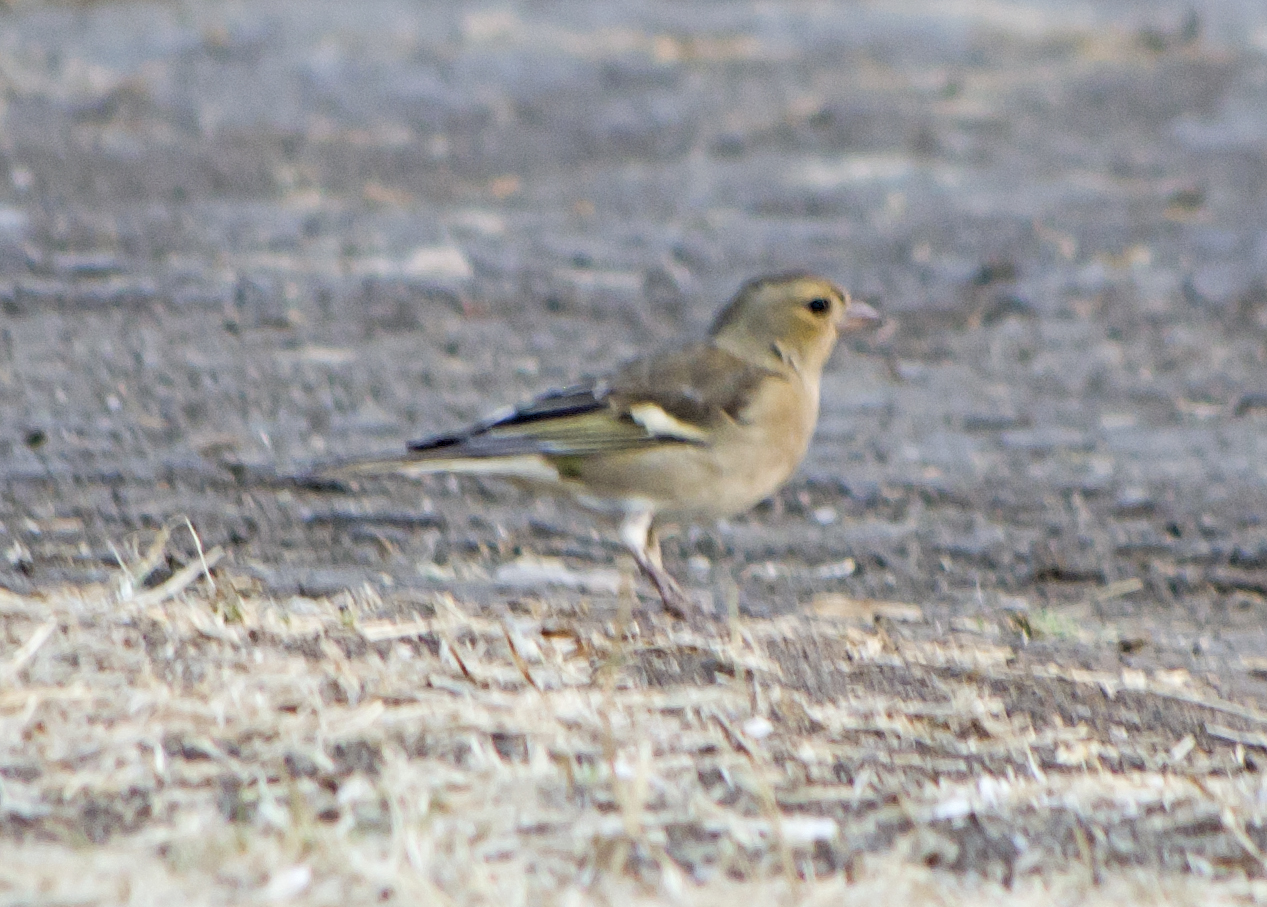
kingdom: Animalia
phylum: Chordata
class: Aves
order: Passeriformes
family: Fringillidae
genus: Fringilla
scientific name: Fringilla coelebs
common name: Common chaffinch
